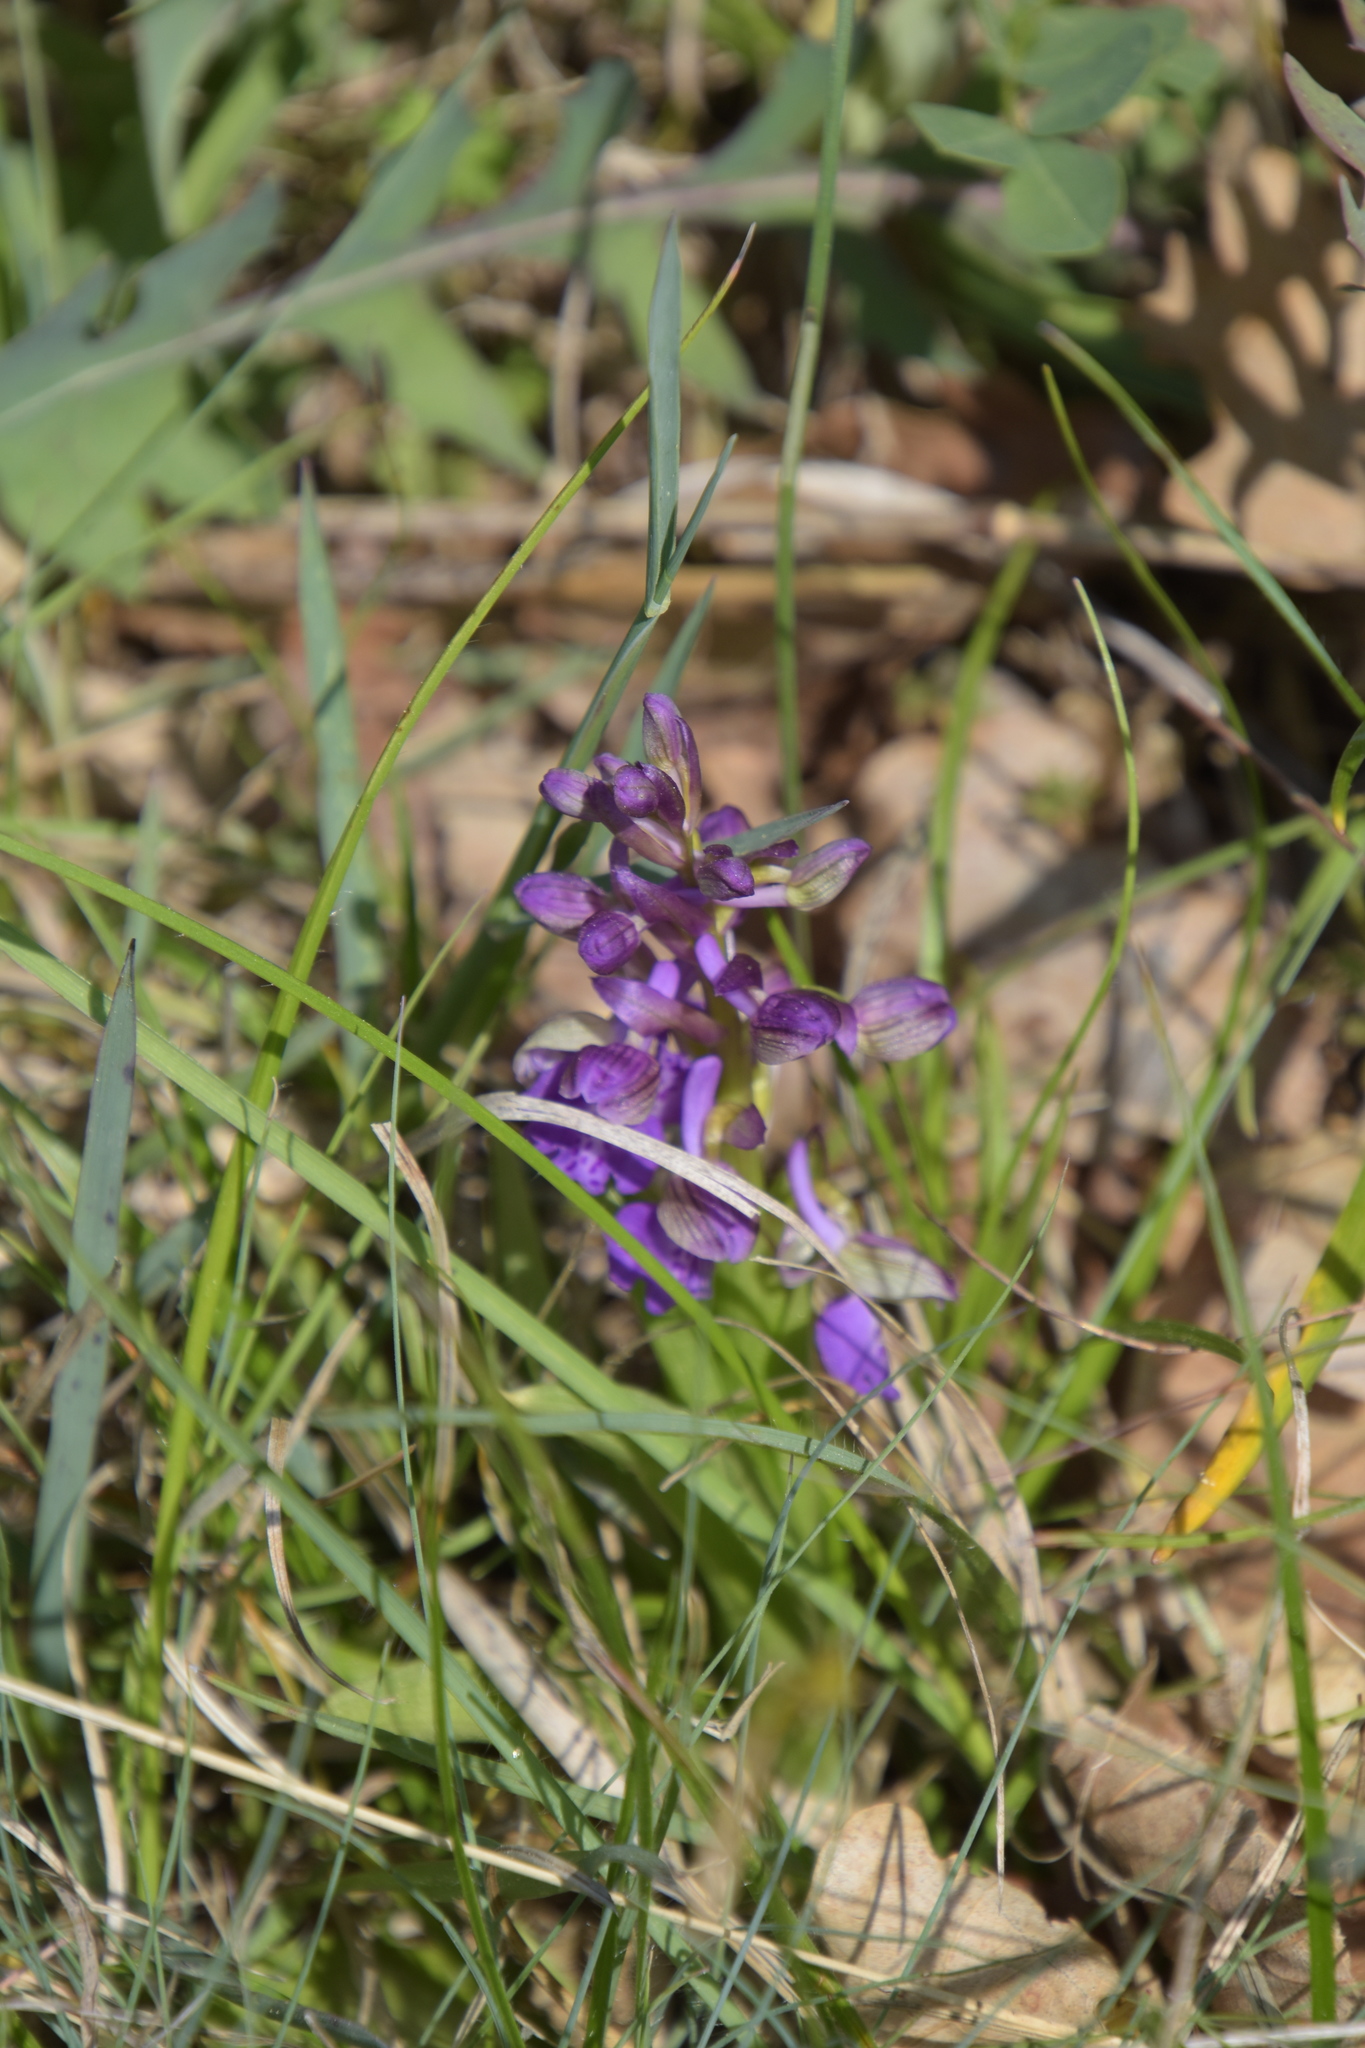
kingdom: Plantae
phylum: Tracheophyta
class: Liliopsida
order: Asparagales
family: Orchidaceae
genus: Anacamptis
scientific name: Anacamptis morio
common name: Green-winged orchid
